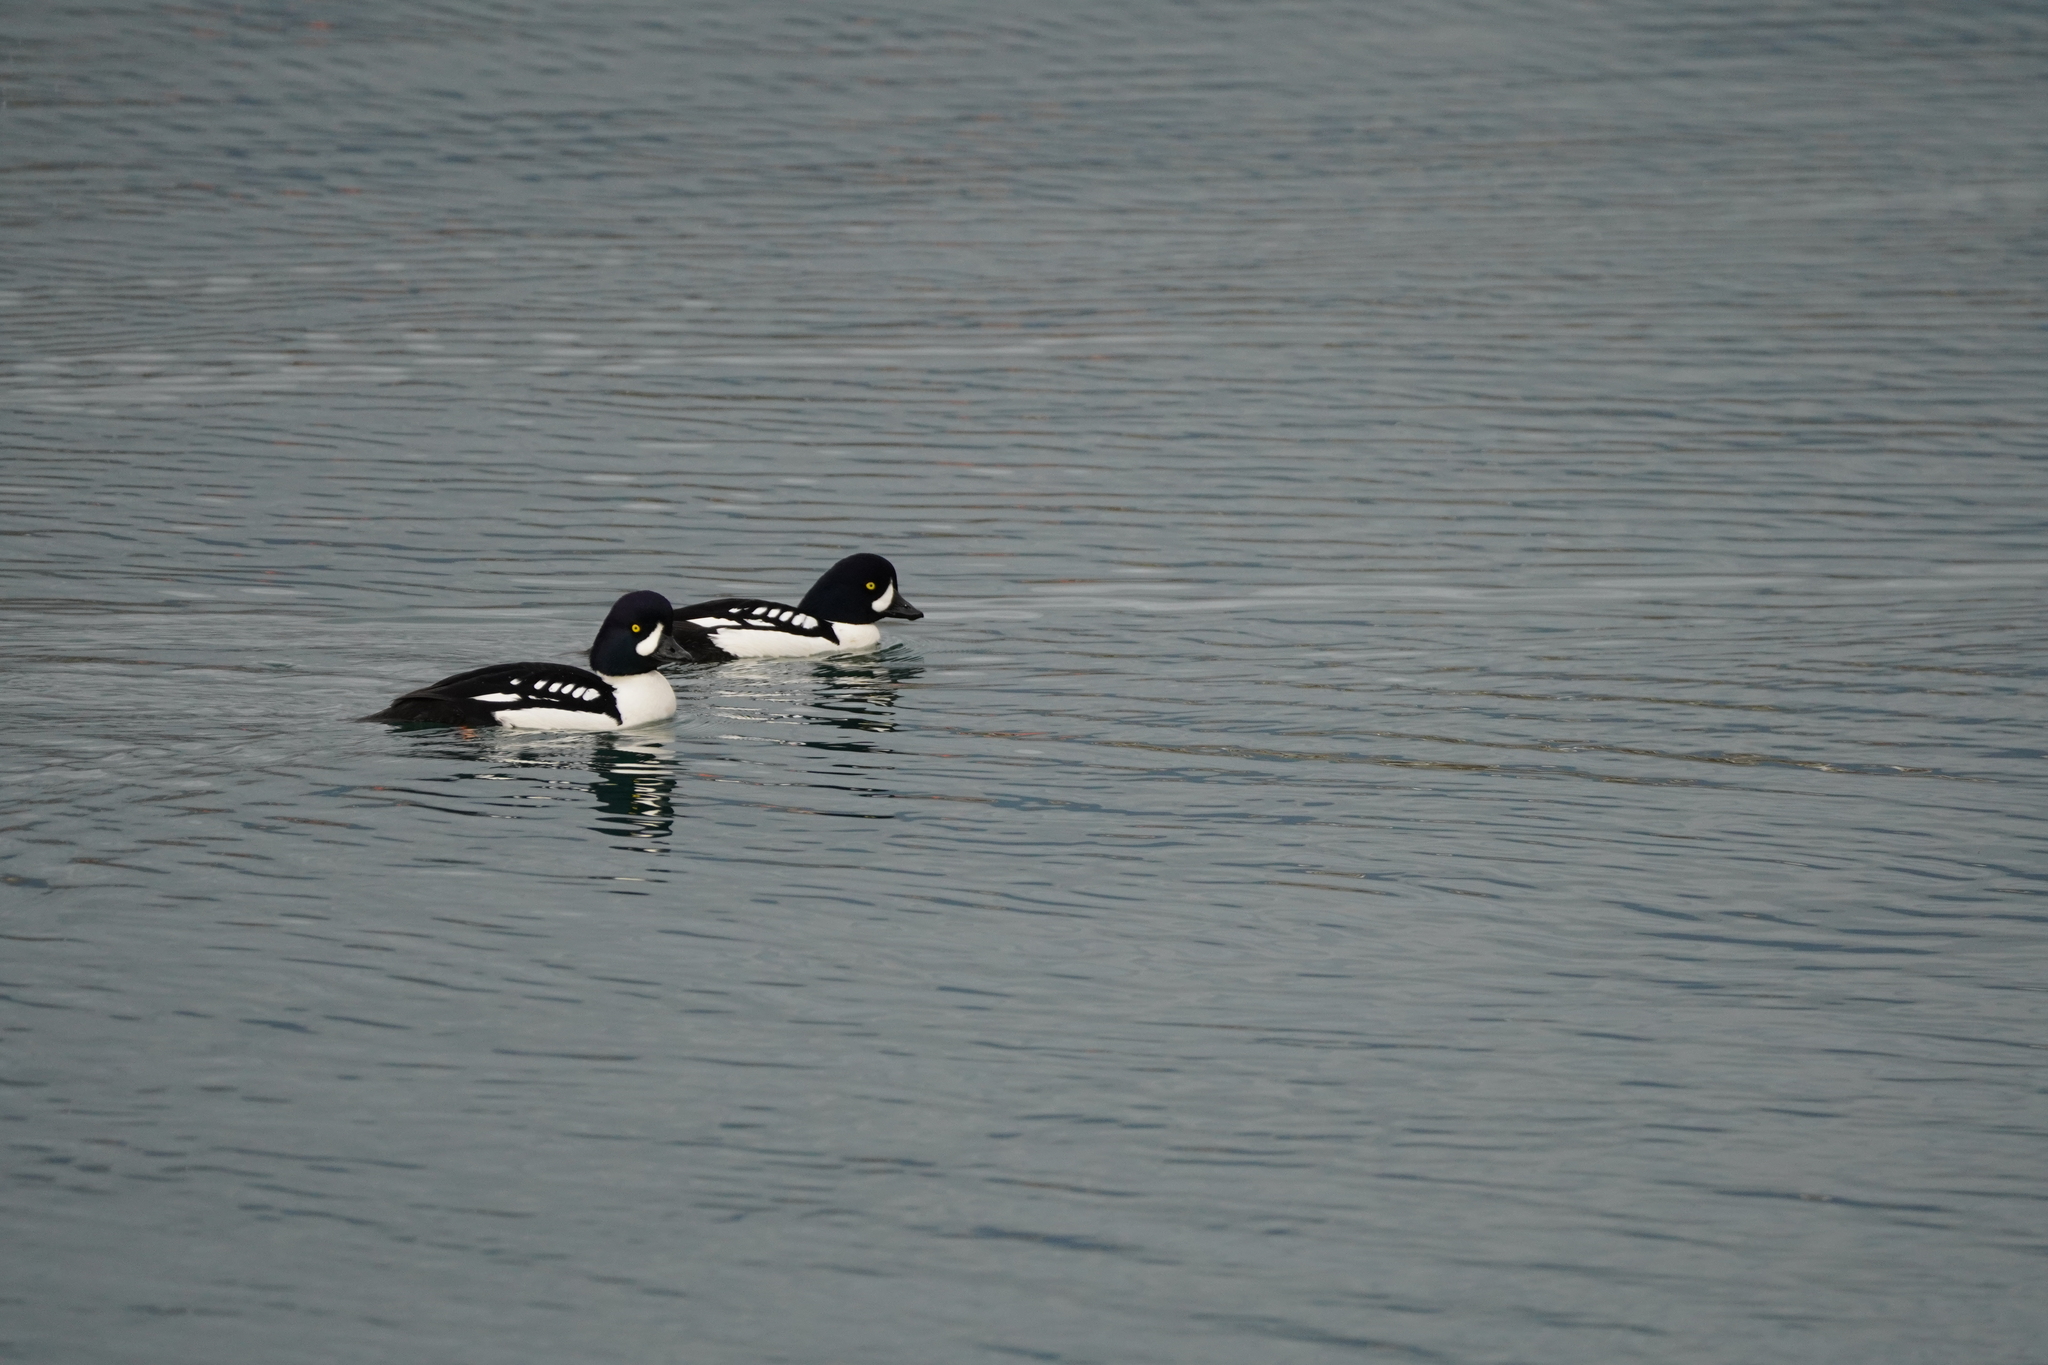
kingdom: Animalia
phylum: Chordata
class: Aves
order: Anseriformes
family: Anatidae
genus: Bucephala
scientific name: Bucephala islandica
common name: Barrow's goldeneye
